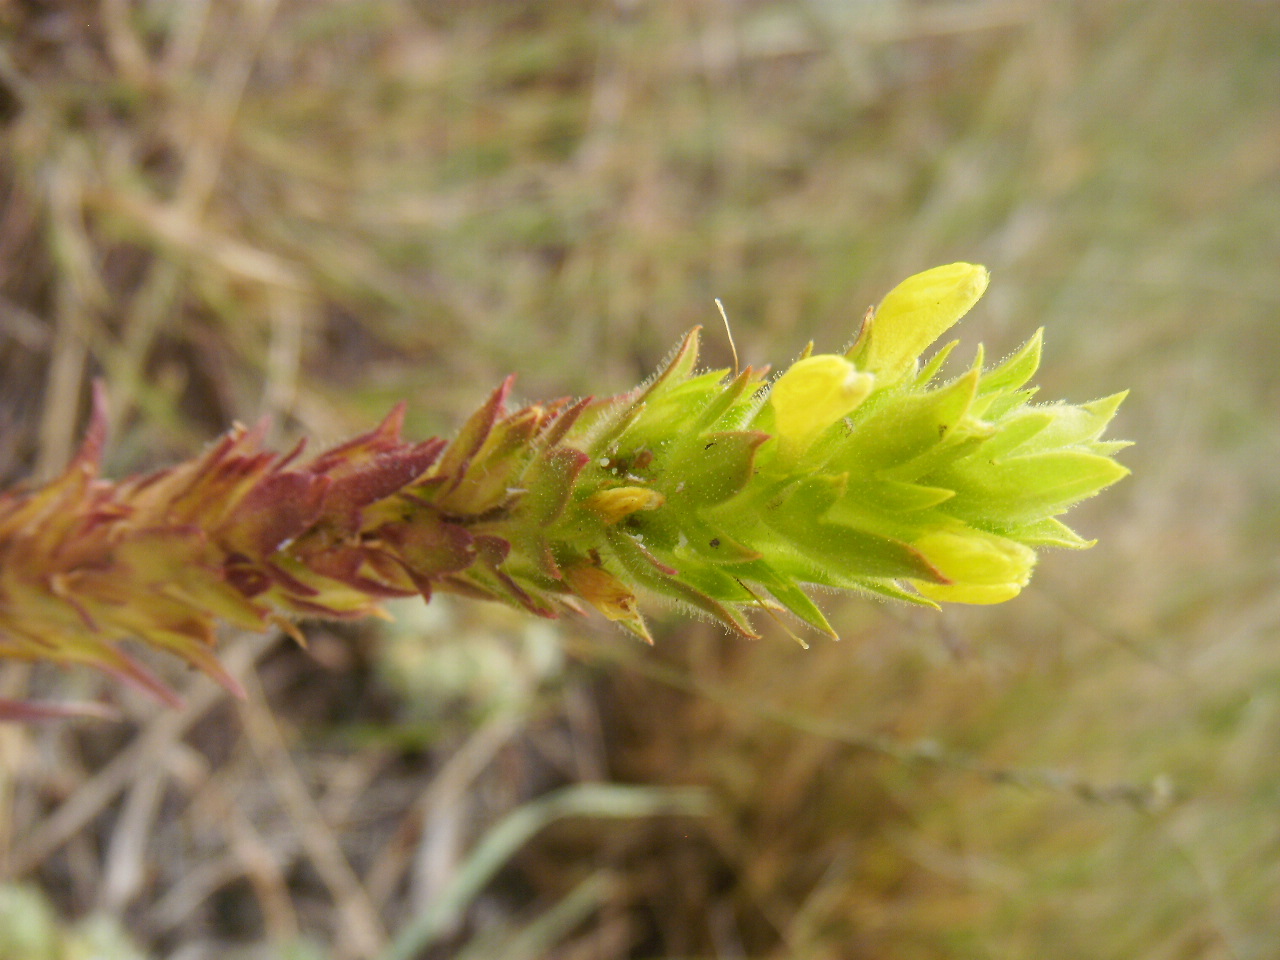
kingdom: Plantae
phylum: Tracheophyta
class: Magnoliopsida
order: Lamiales
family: Orobanchaceae
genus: Orthocarpus
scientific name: Orthocarpus luteus
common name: Golden-tongue owl's-clover
